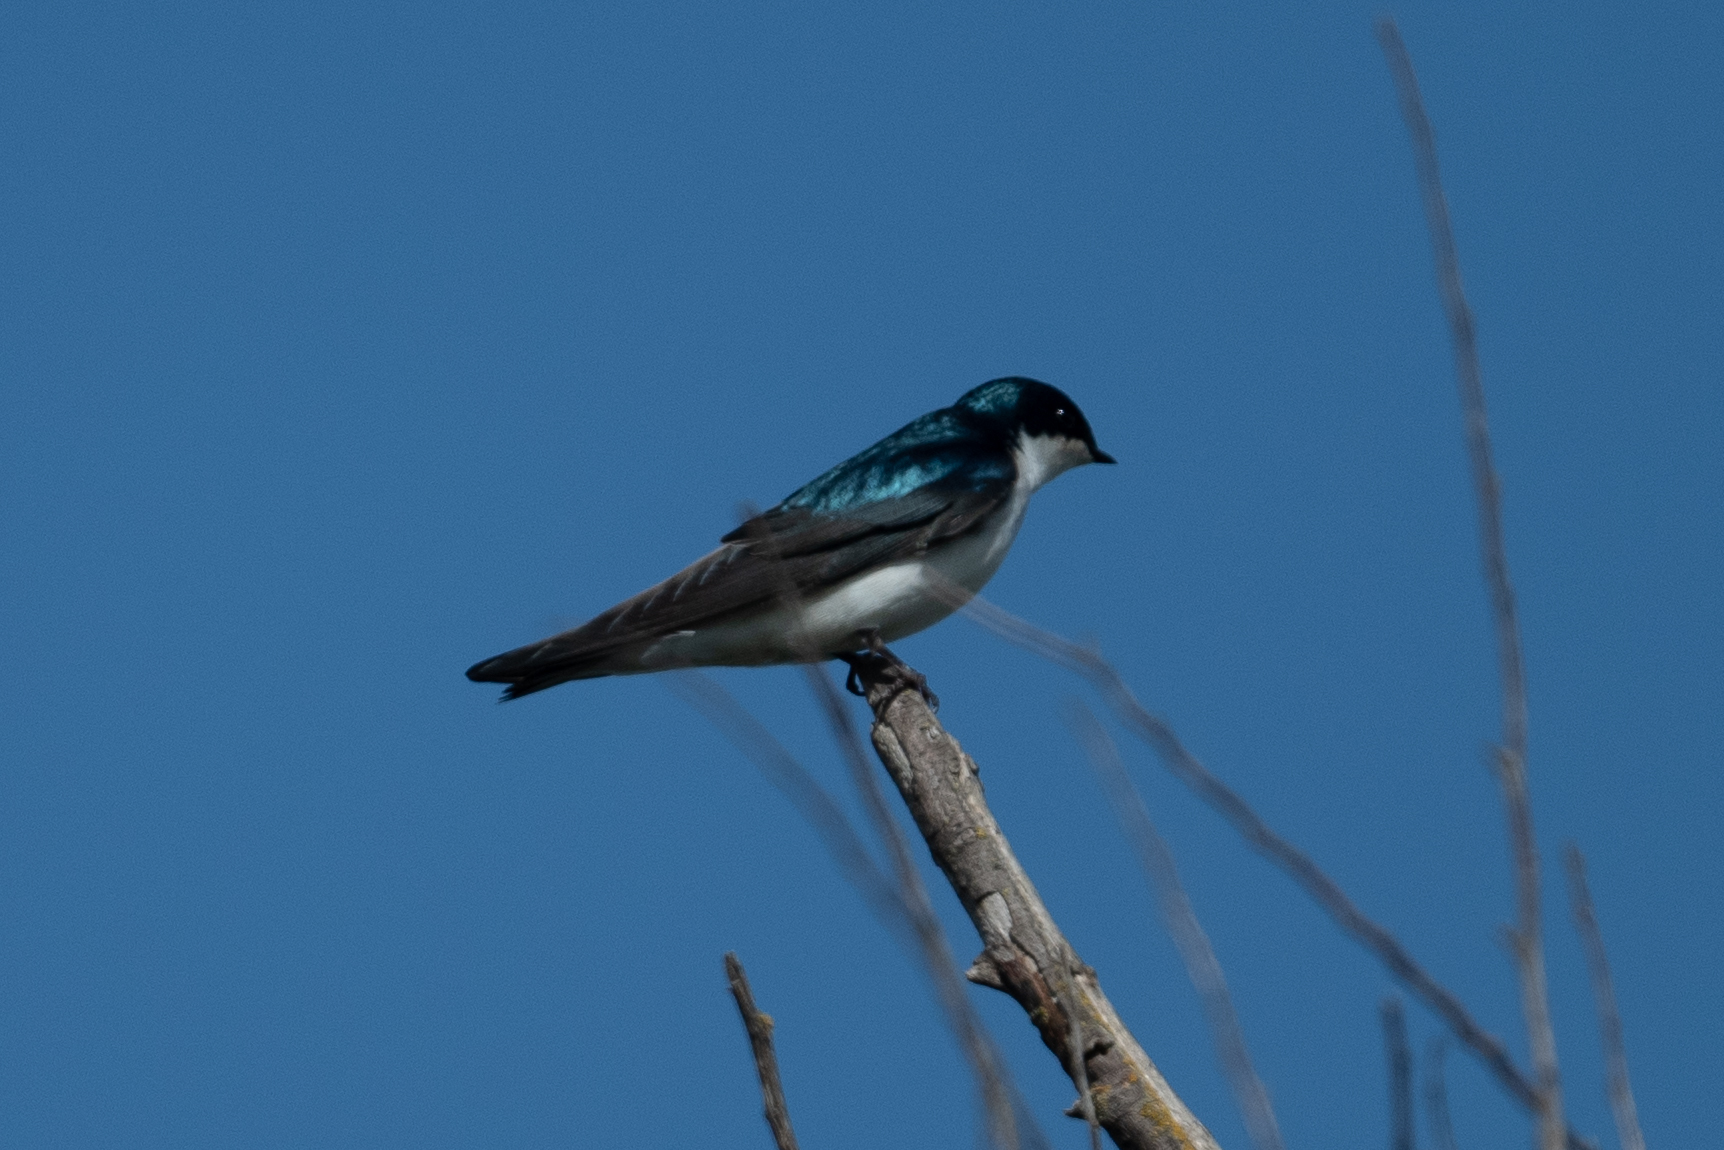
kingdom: Animalia
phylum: Chordata
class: Aves
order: Passeriformes
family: Hirundinidae
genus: Tachycineta
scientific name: Tachycineta bicolor
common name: Tree swallow
